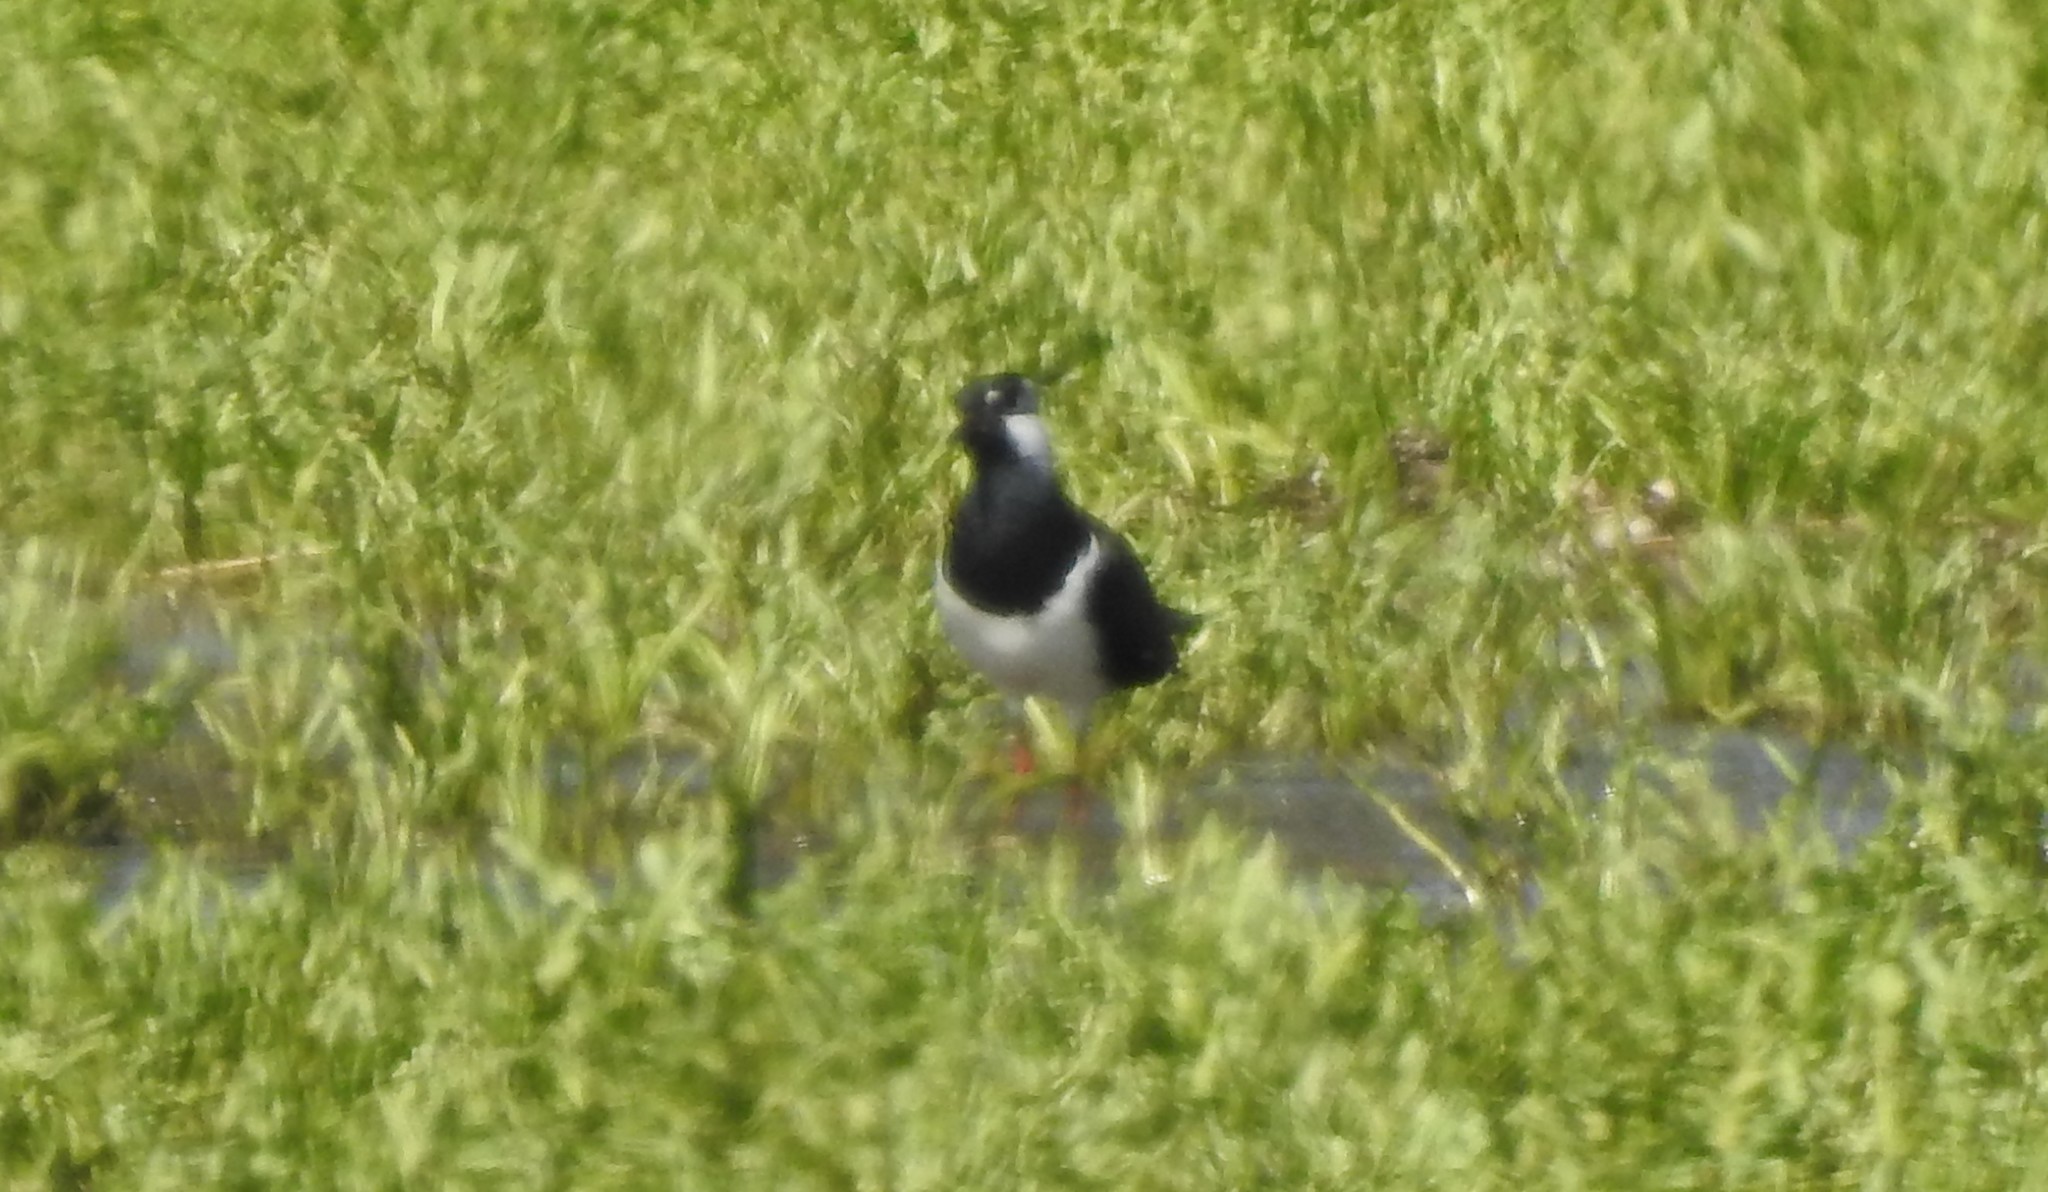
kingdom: Animalia
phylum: Chordata
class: Aves
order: Charadriiformes
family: Charadriidae
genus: Vanellus
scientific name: Vanellus vanellus
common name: Northern lapwing
